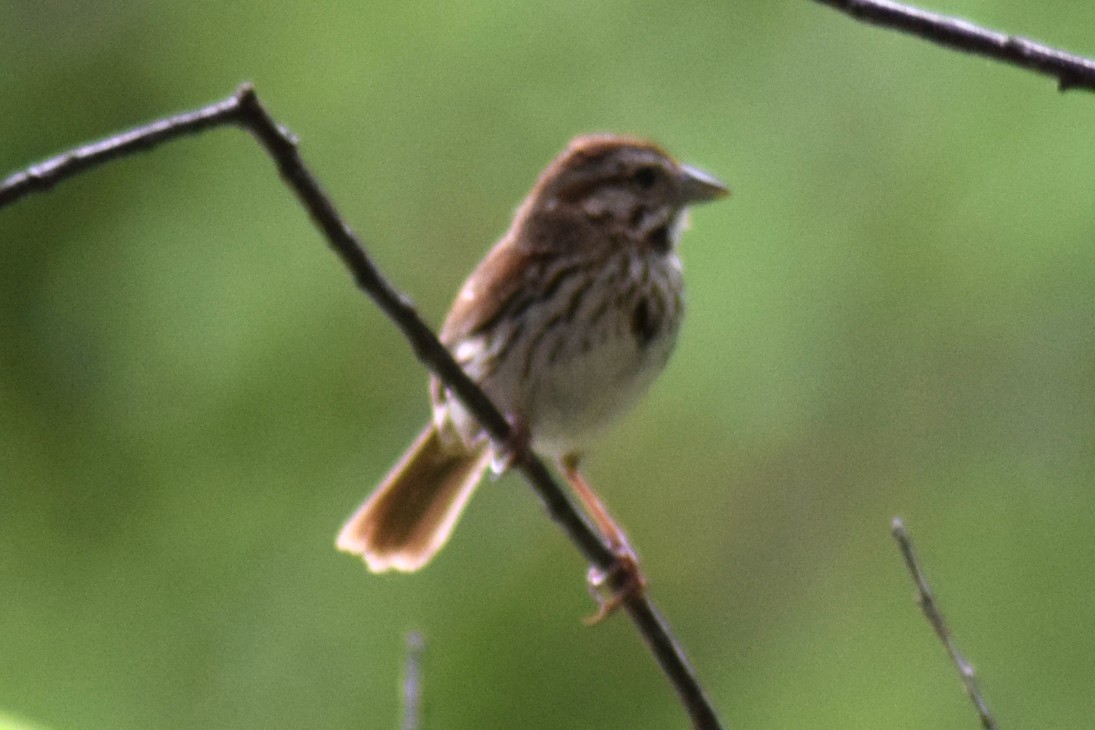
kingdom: Animalia
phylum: Chordata
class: Aves
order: Passeriformes
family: Passerellidae
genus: Melospiza
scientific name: Melospiza melodia
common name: Song sparrow
